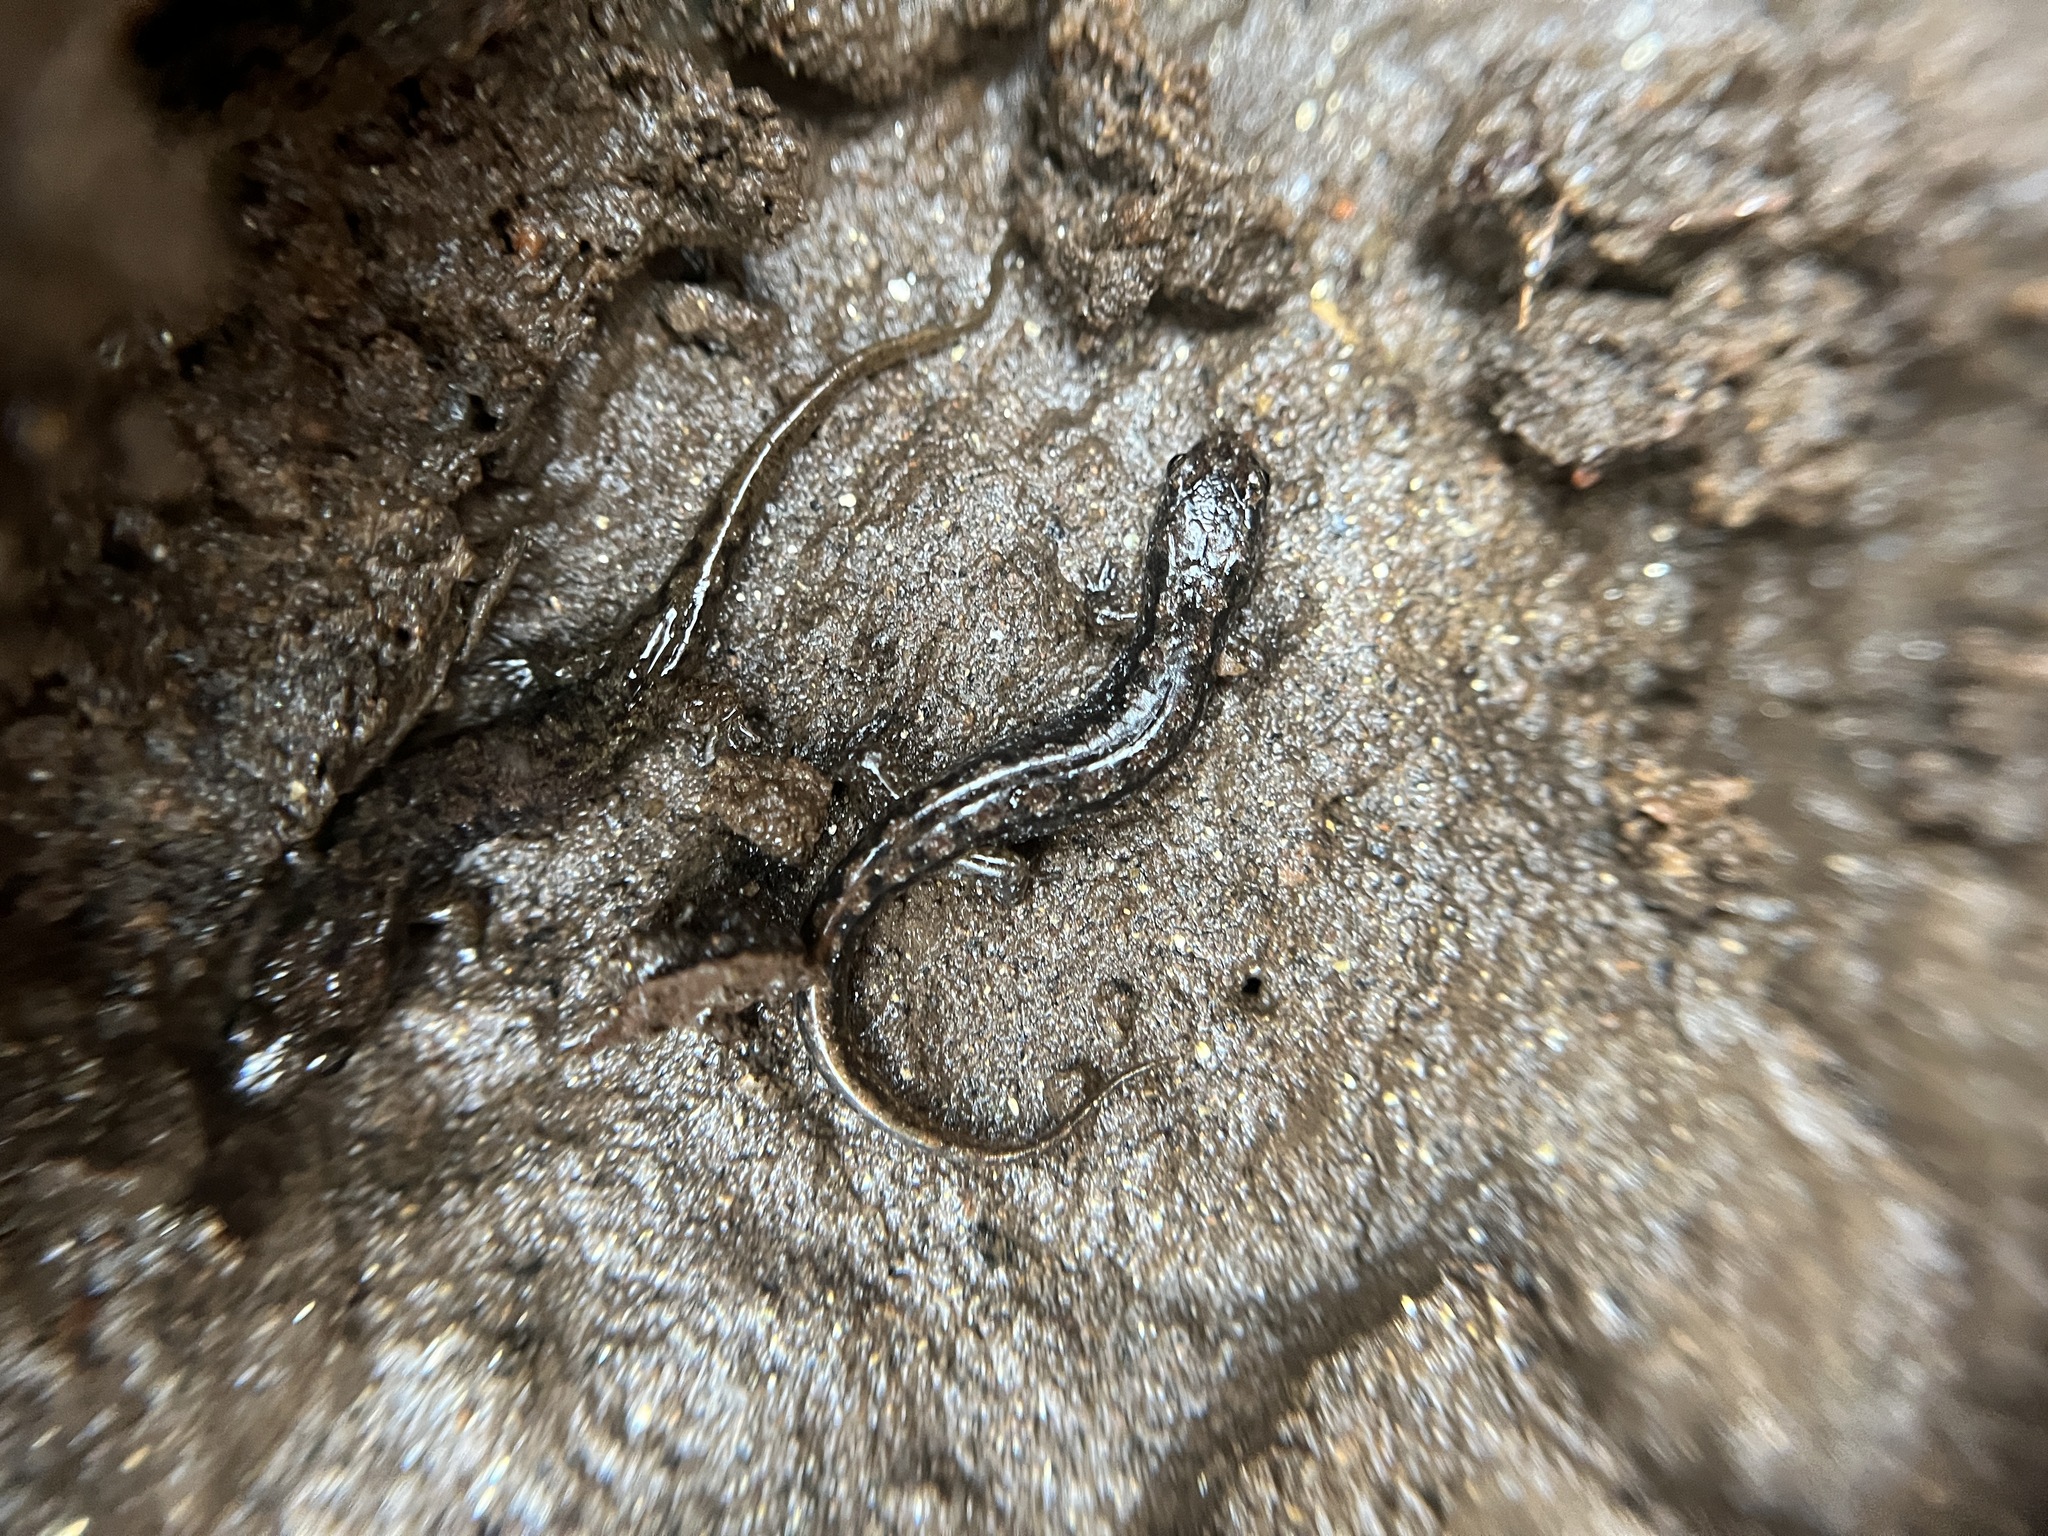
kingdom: Animalia
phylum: Chordata
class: Amphibia
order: Caudata
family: Plethodontidae
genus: Desmognathus
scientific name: Desmognathus planiceps
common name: Flat-headed salamander
